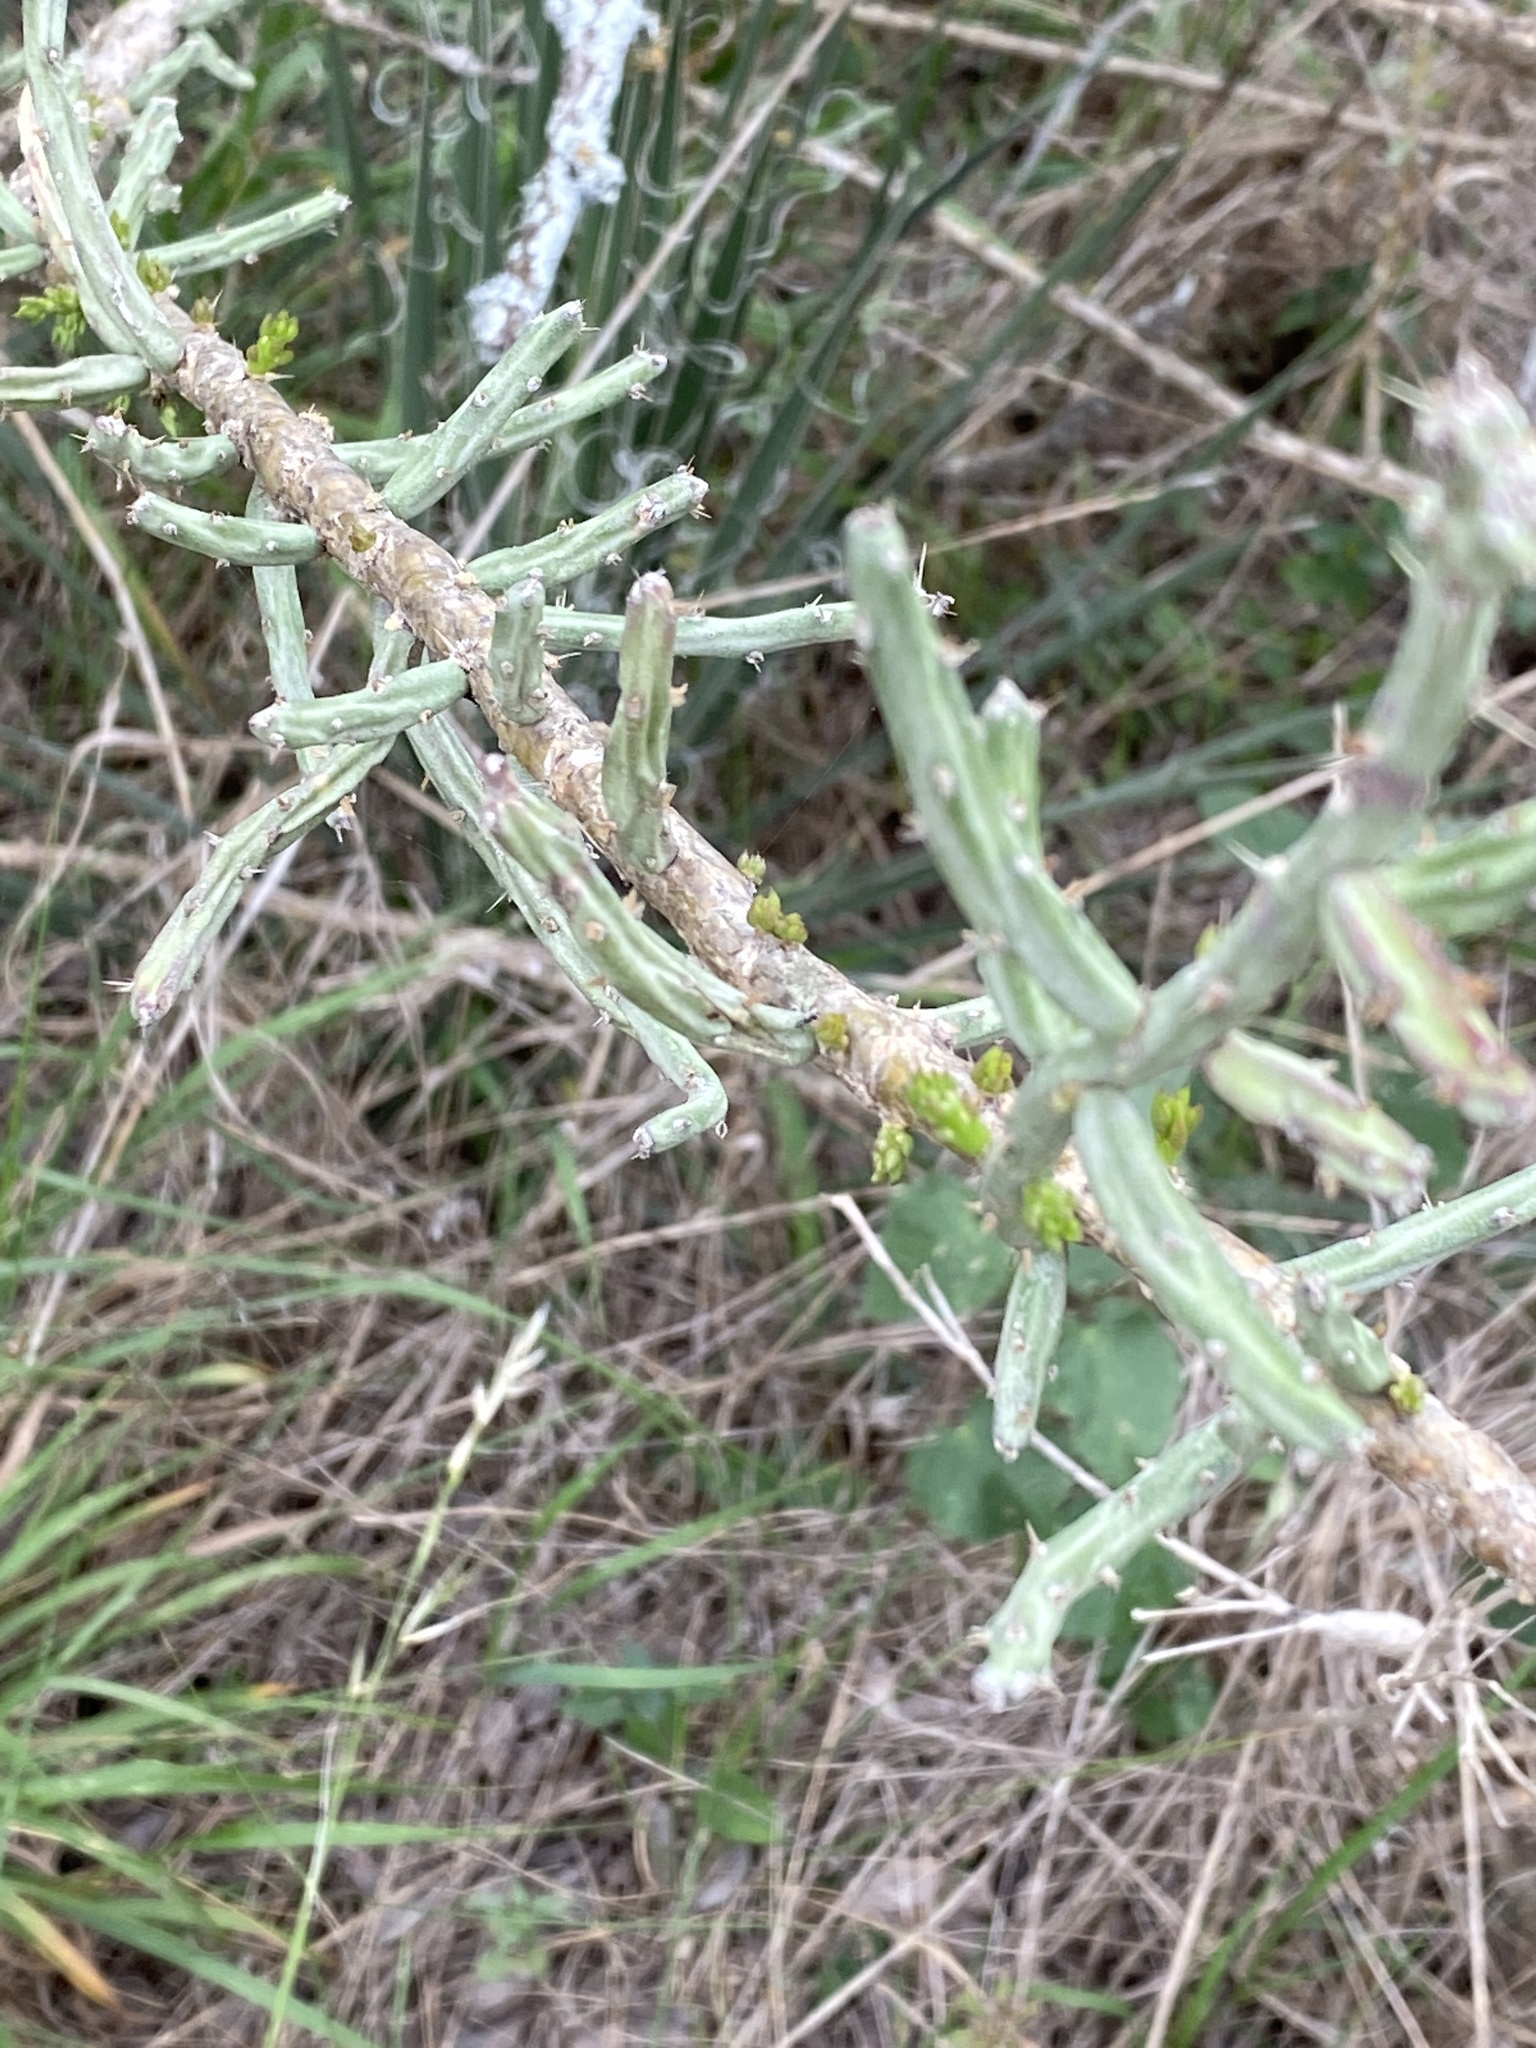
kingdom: Plantae
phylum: Tracheophyta
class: Magnoliopsida
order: Caryophyllales
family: Cactaceae
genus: Cylindropuntia
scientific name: Cylindropuntia leptocaulis
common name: Christmas cactus
